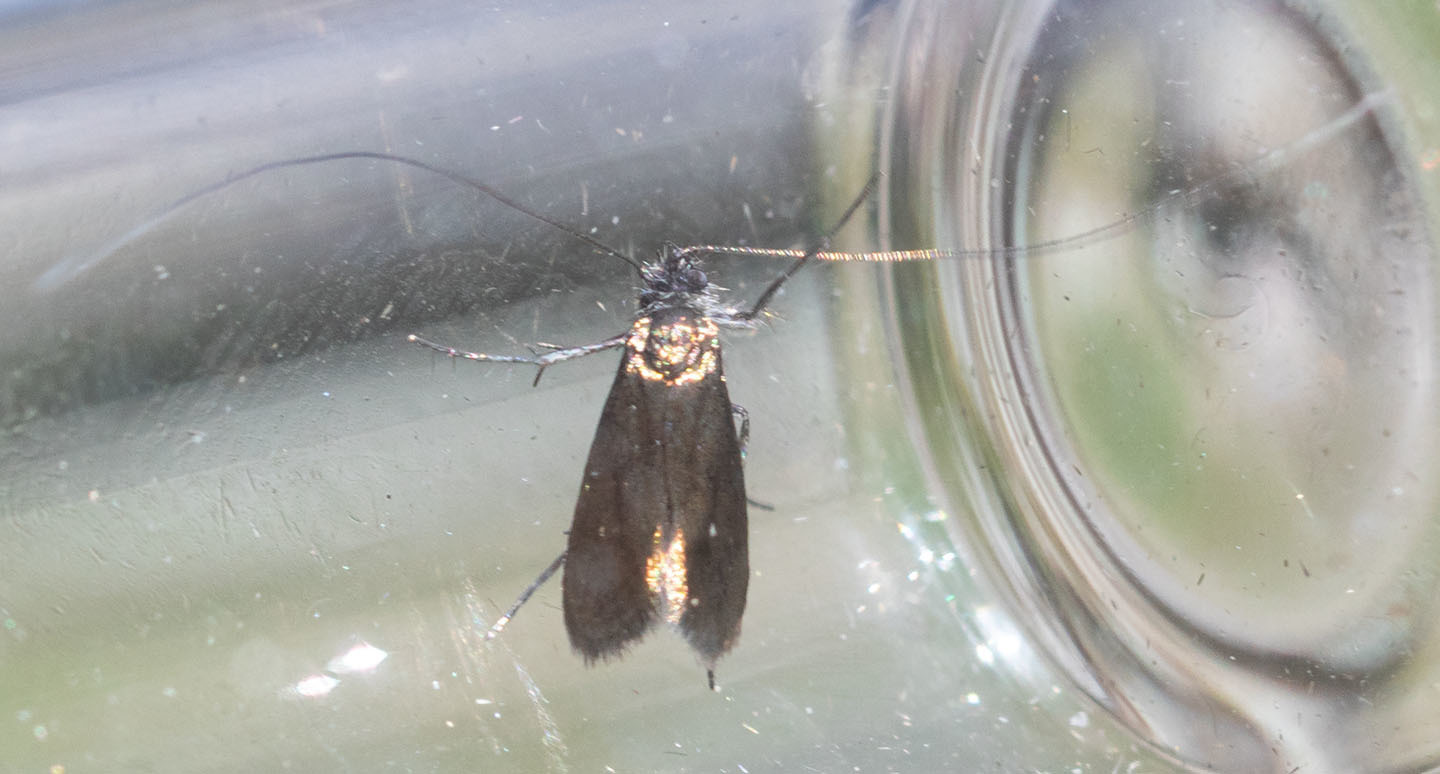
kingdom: Animalia
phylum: Arthropoda
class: Insecta
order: Lepidoptera
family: Adelidae
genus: Adela
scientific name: Adela singulella
